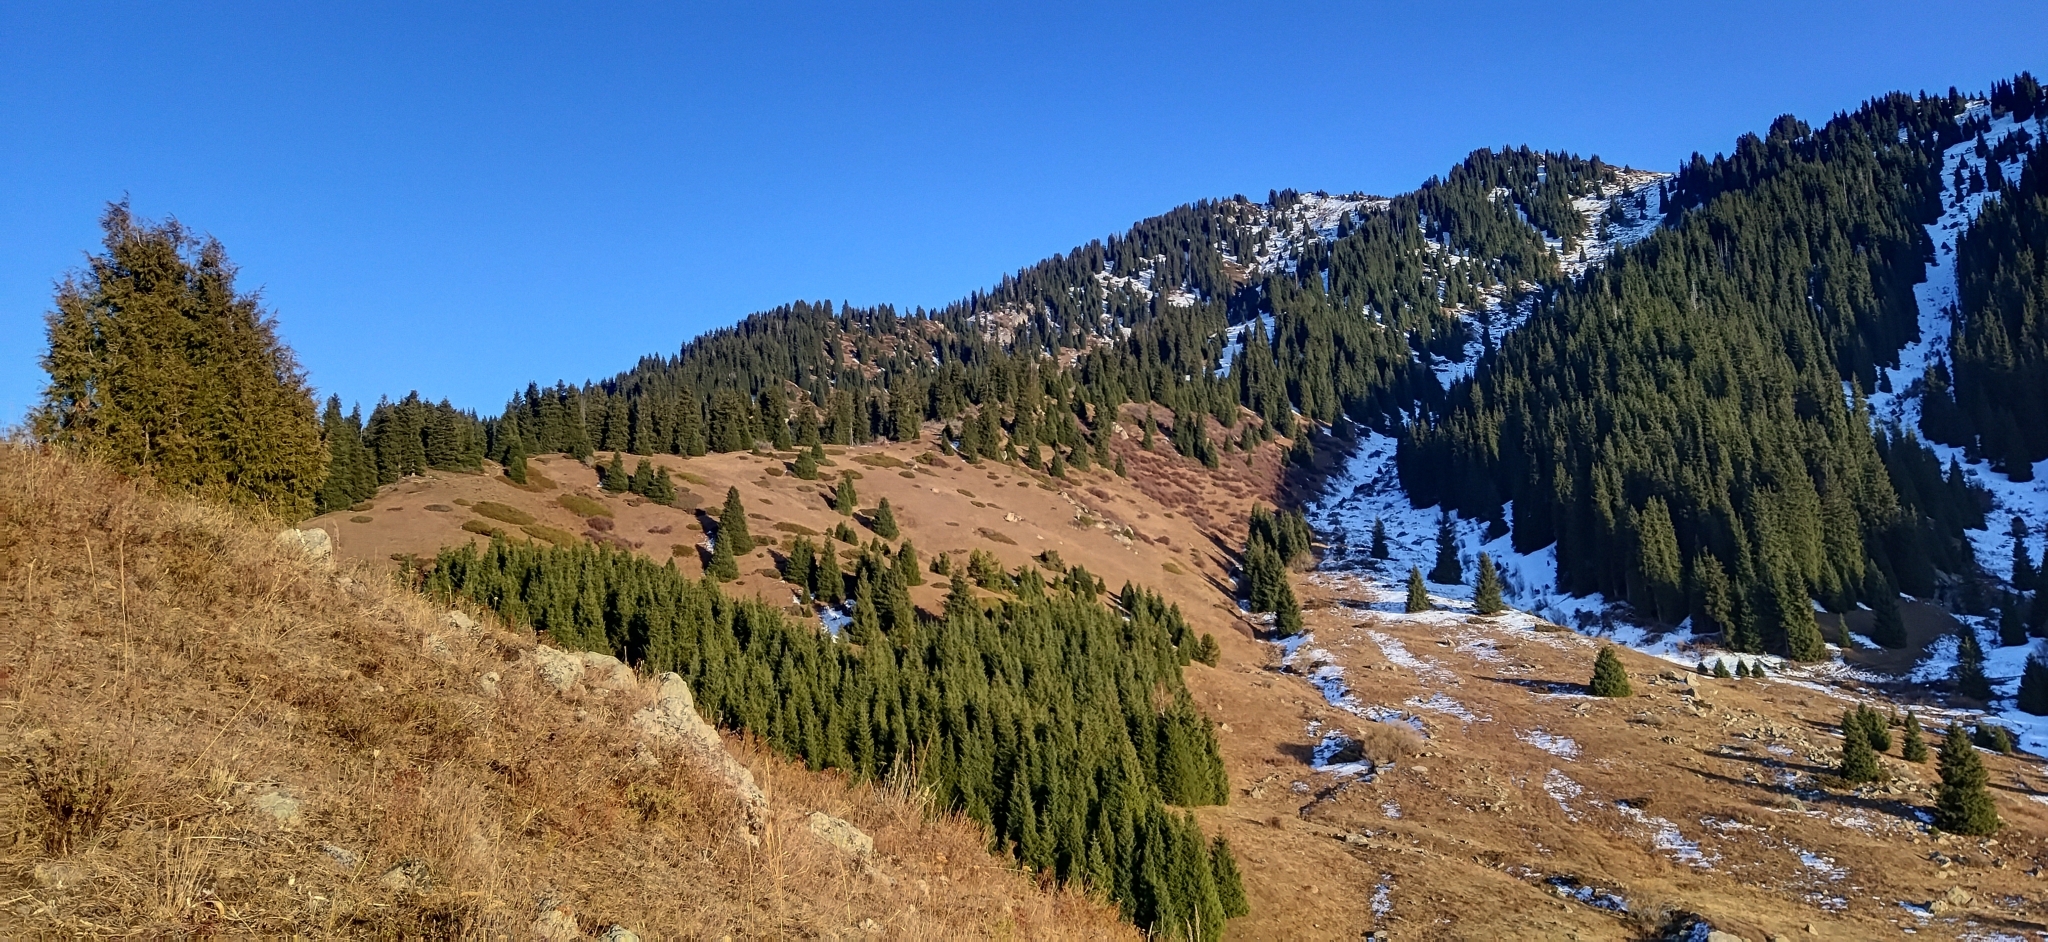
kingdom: Plantae
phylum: Tracheophyta
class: Pinopsida
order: Pinales
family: Pinaceae
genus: Picea
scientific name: Picea schrenkiana
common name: Asian spruce
